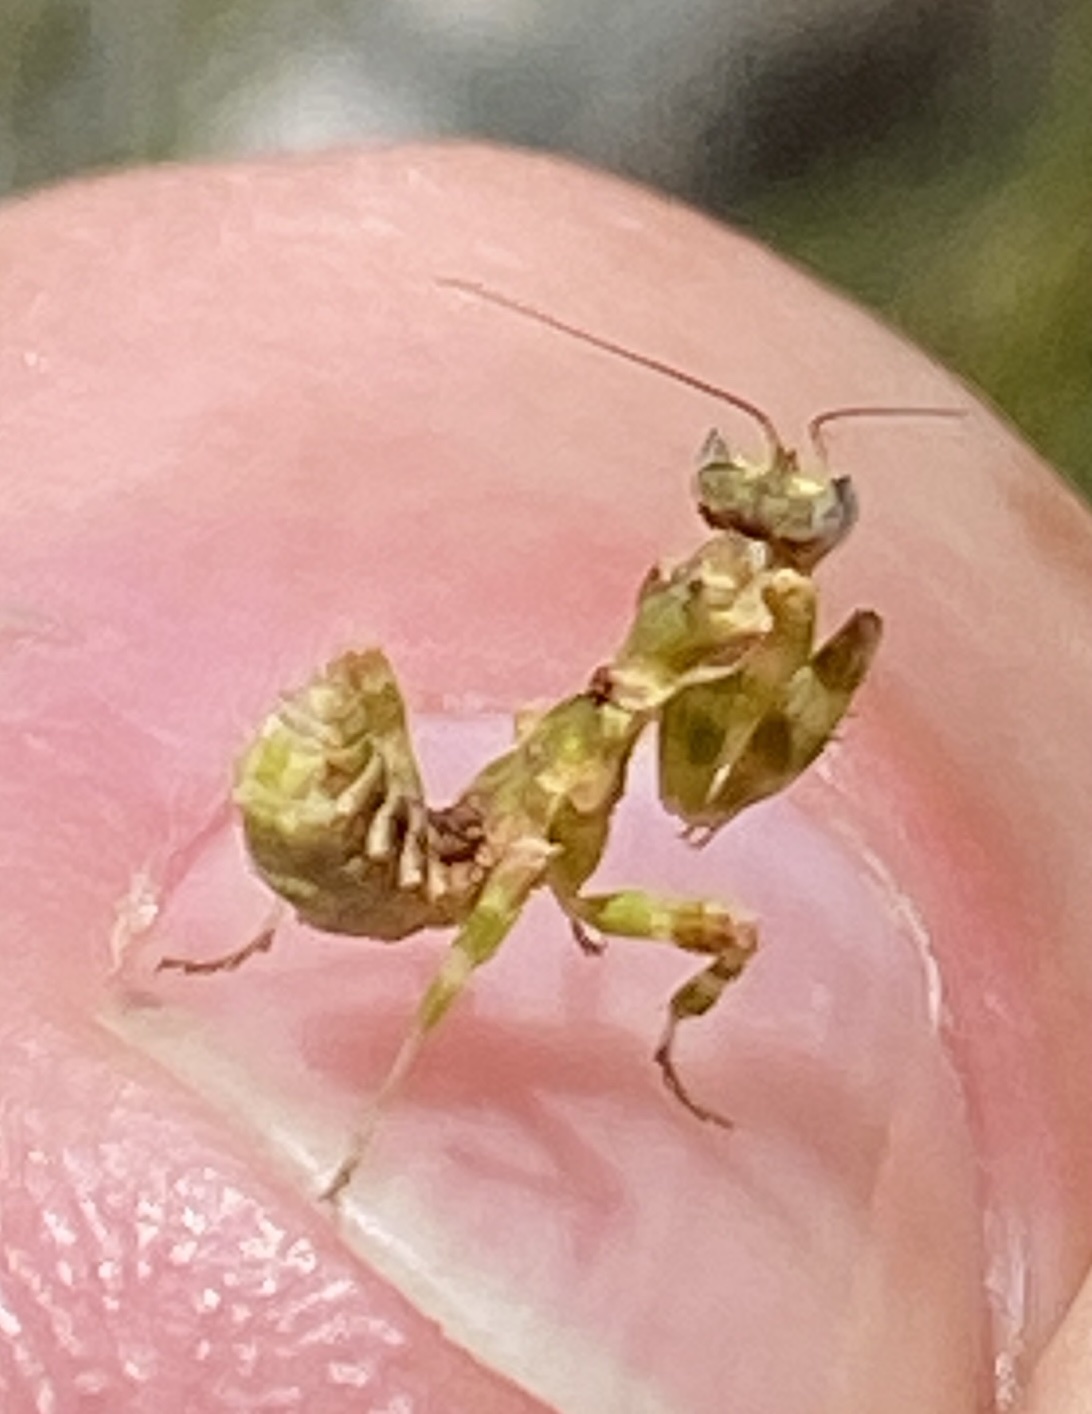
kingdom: Animalia
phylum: Arthropoda
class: Insecta
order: Mantodea
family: Galinthiadidae
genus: Harpagomantis
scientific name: Harpagomantis tricolor
